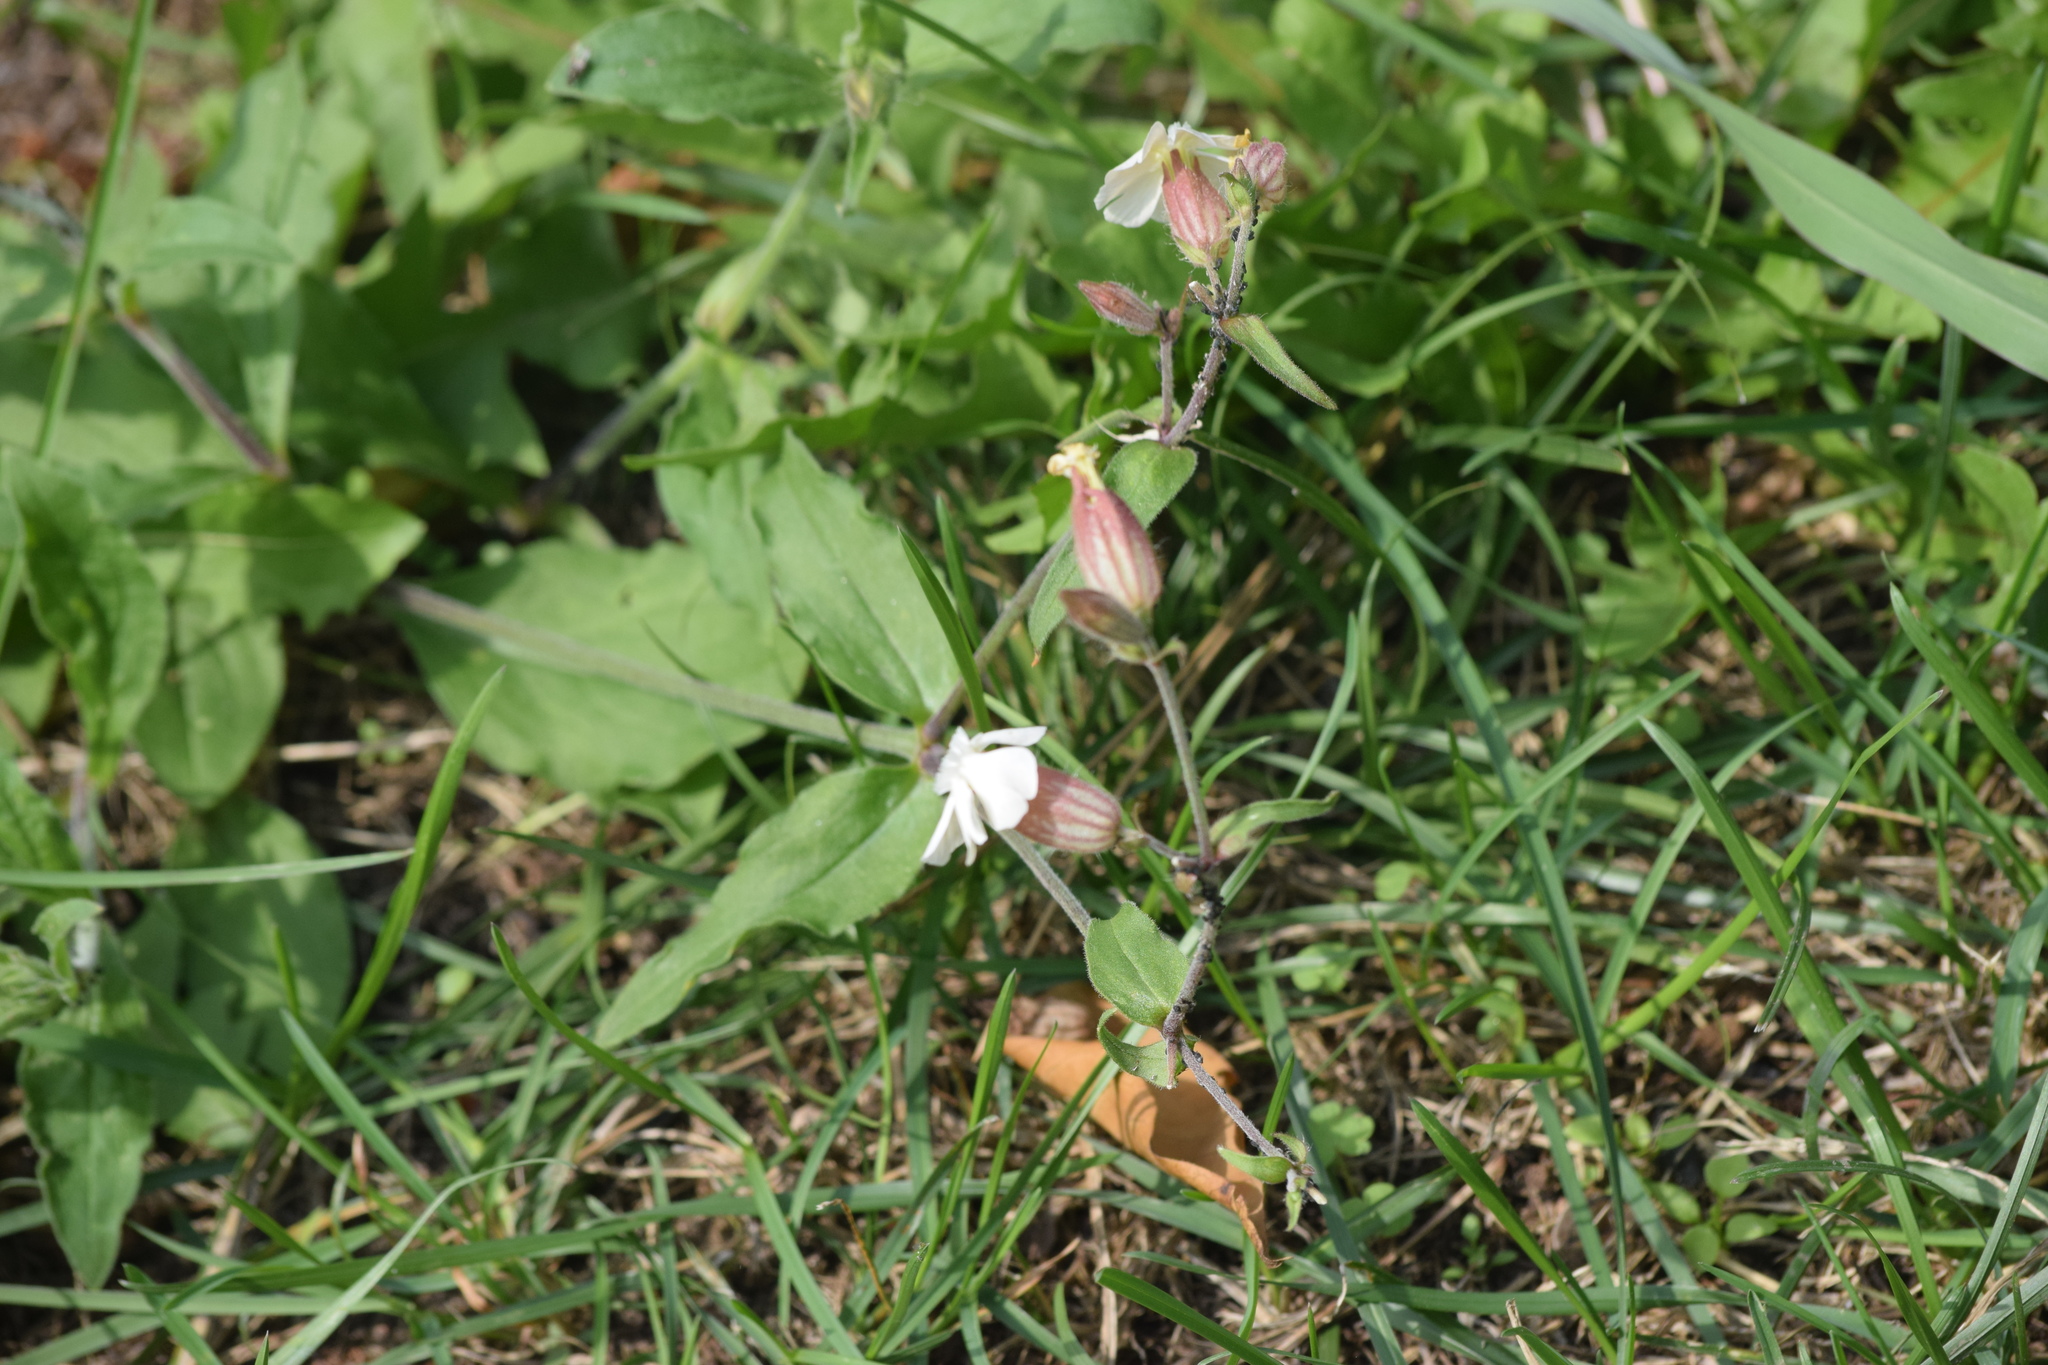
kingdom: Plantae
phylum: Tracheophyta
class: Magnoliopsida
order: Caryophyllales
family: Caryophyllaceae
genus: Silene
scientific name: Silene latifolia
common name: White campion
